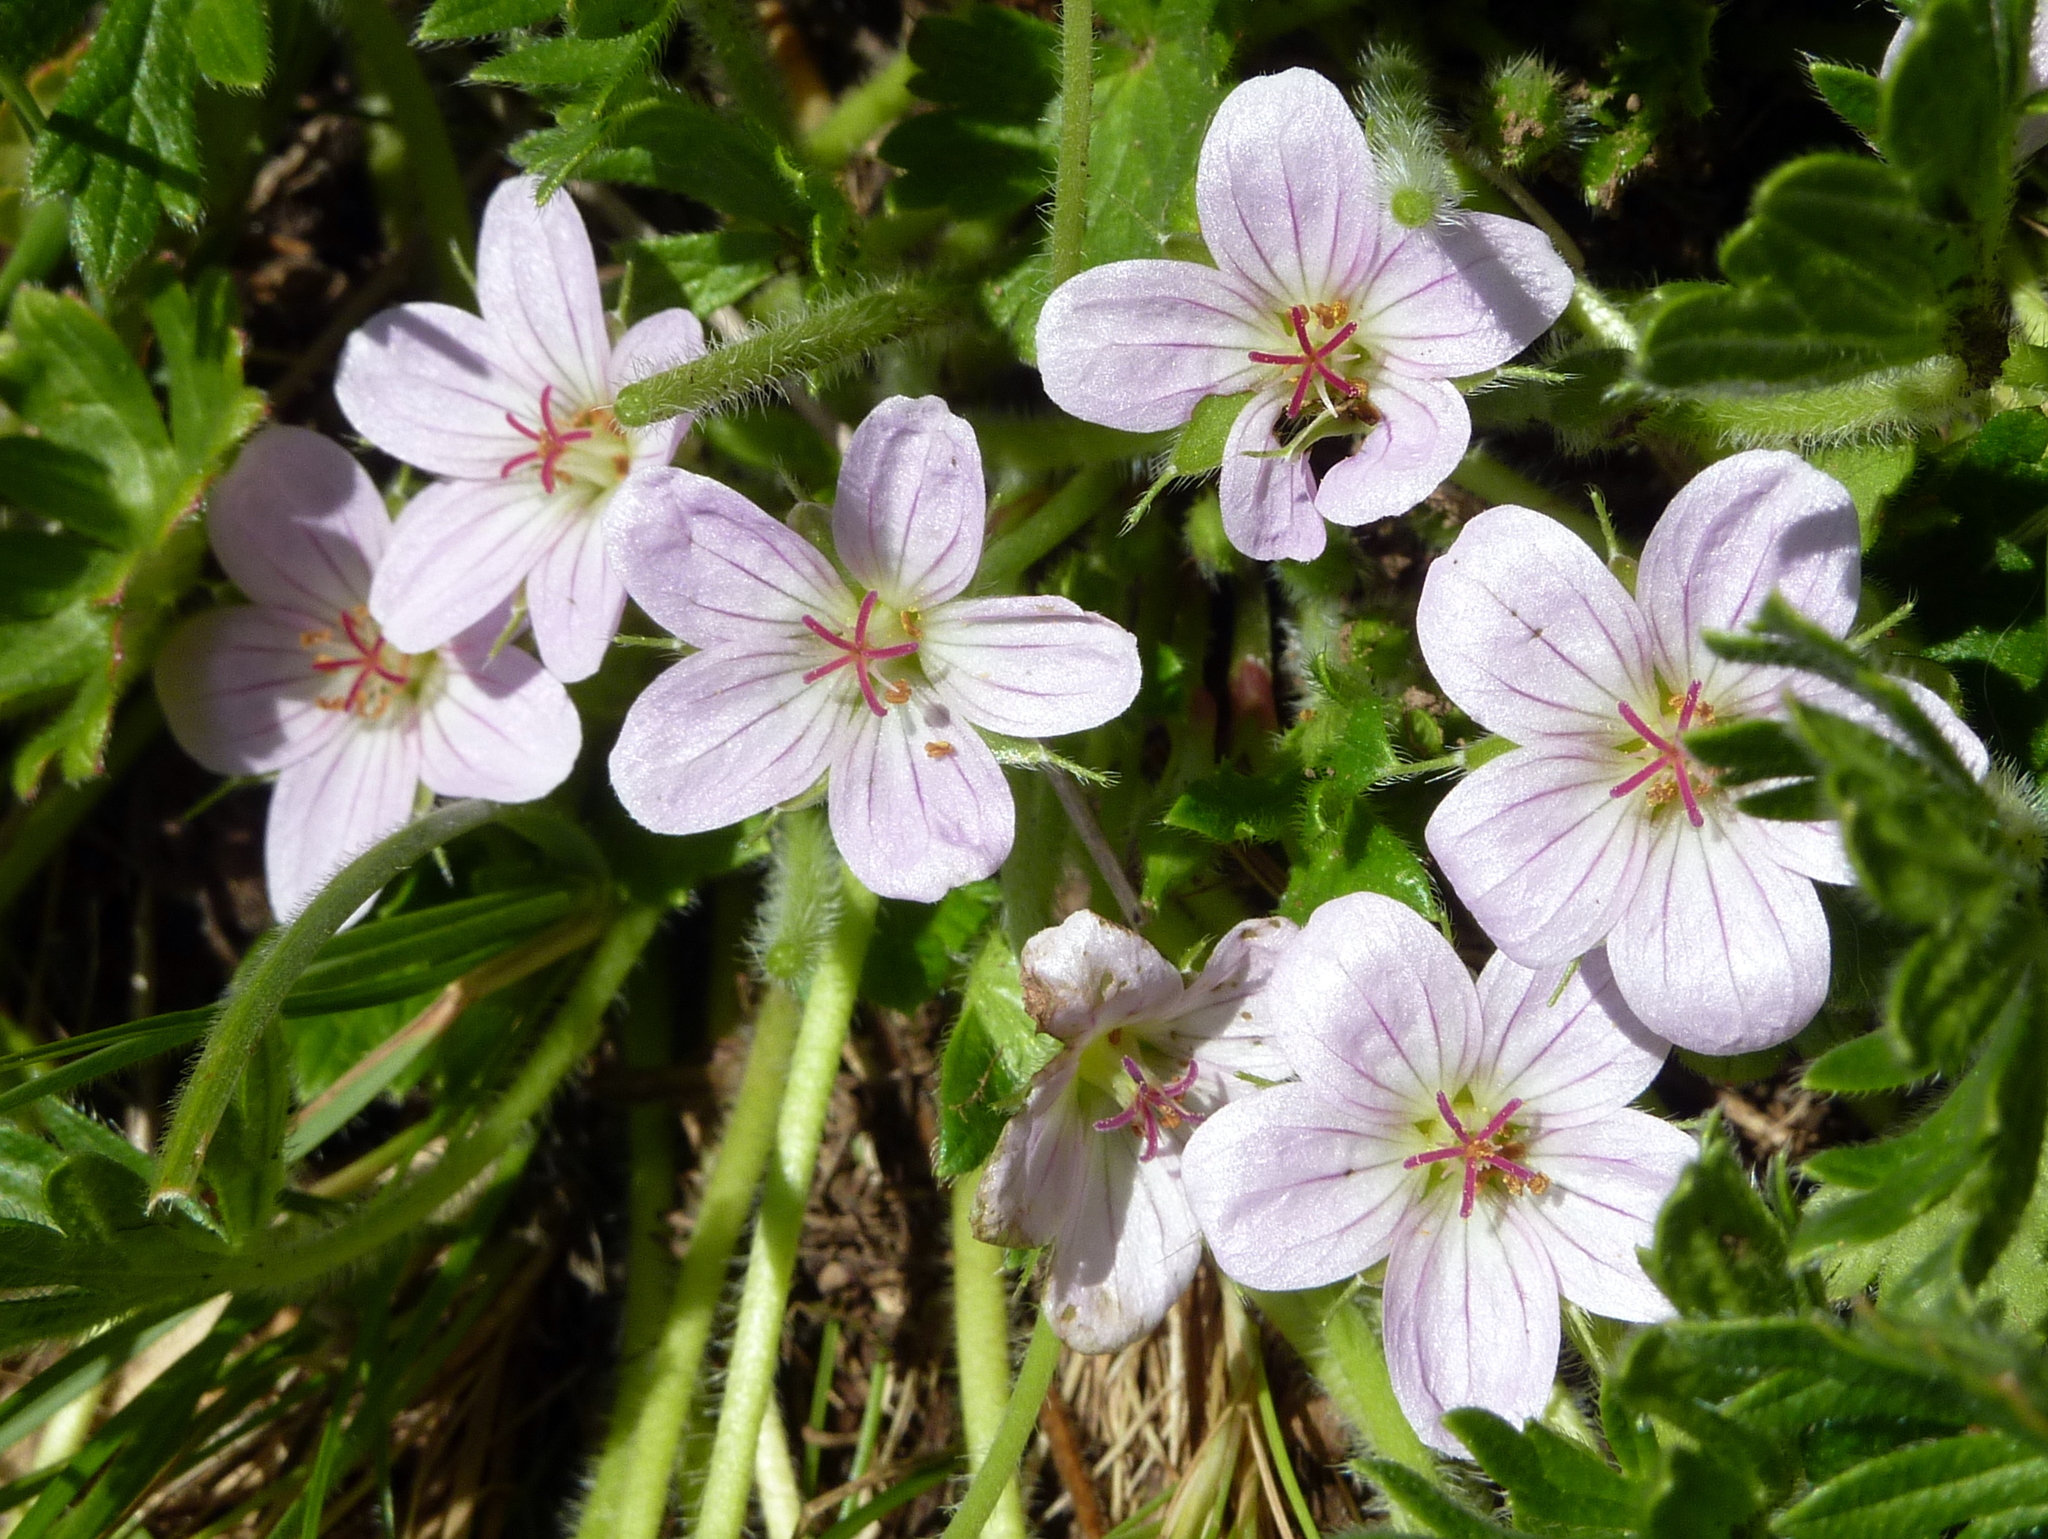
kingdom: Plantae
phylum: Tracheophyta
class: Magnoliopsida
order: Geraniales
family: Geraniaceae
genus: Geranium
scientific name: Geranium antrorsum
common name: Rosetted crane's-bill
